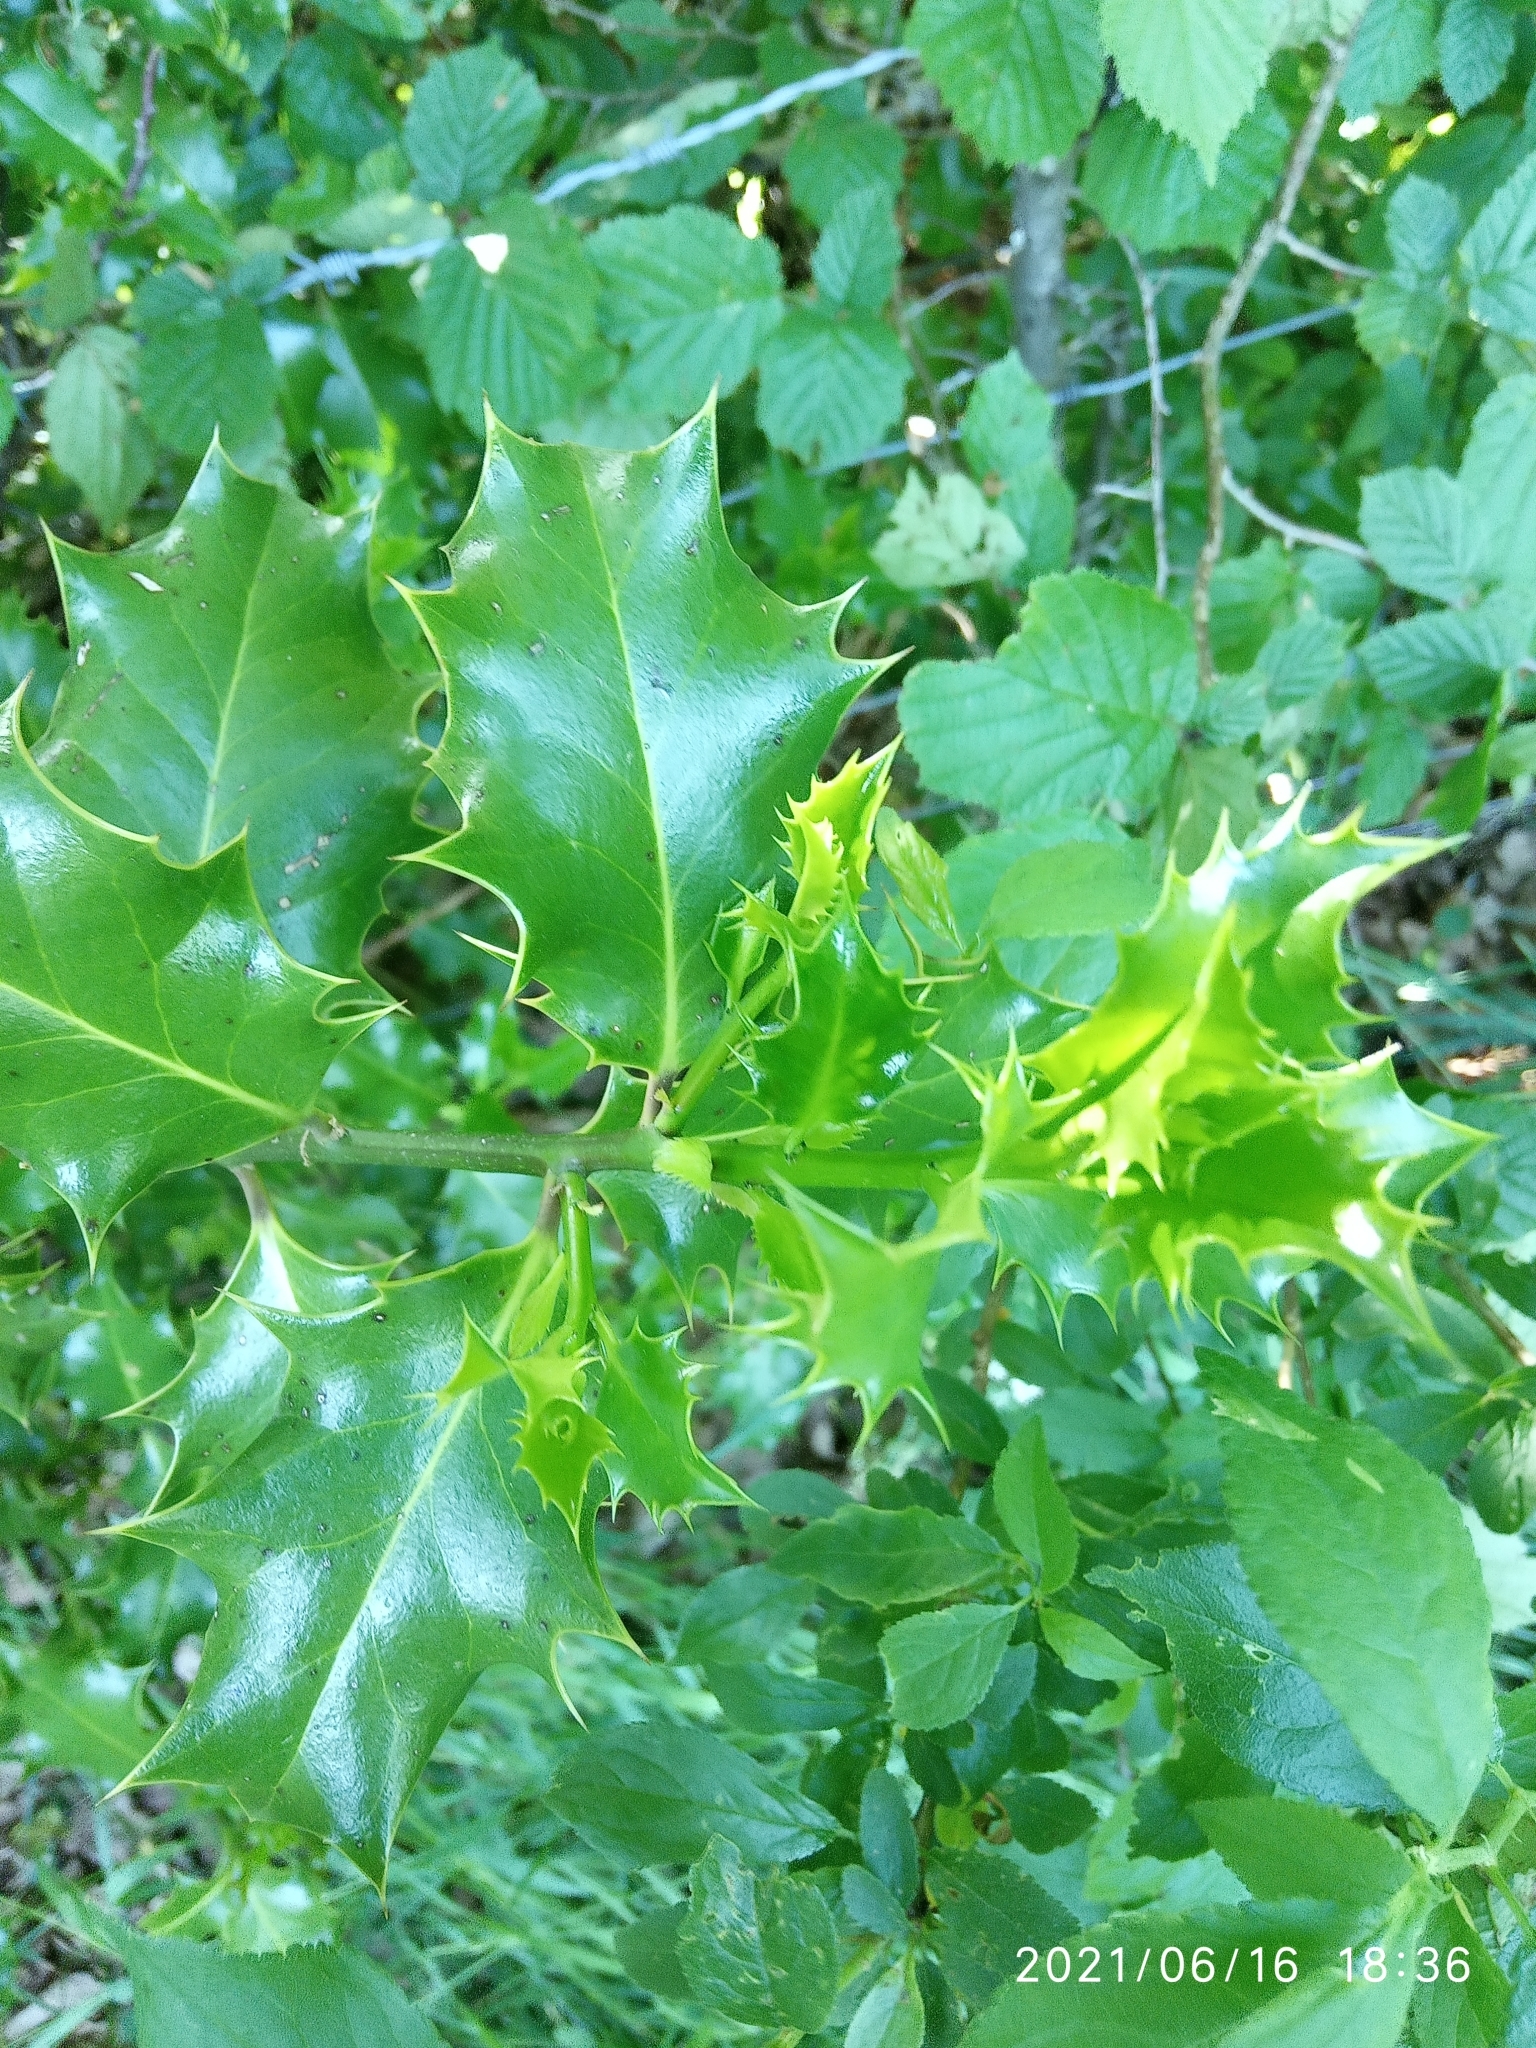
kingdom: Plantae
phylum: Tracheophyta
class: Magnoliopsida
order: Aquifoliales
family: Aquifoliaceae
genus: Ilex
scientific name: Ilex aquifolium
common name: English holly
